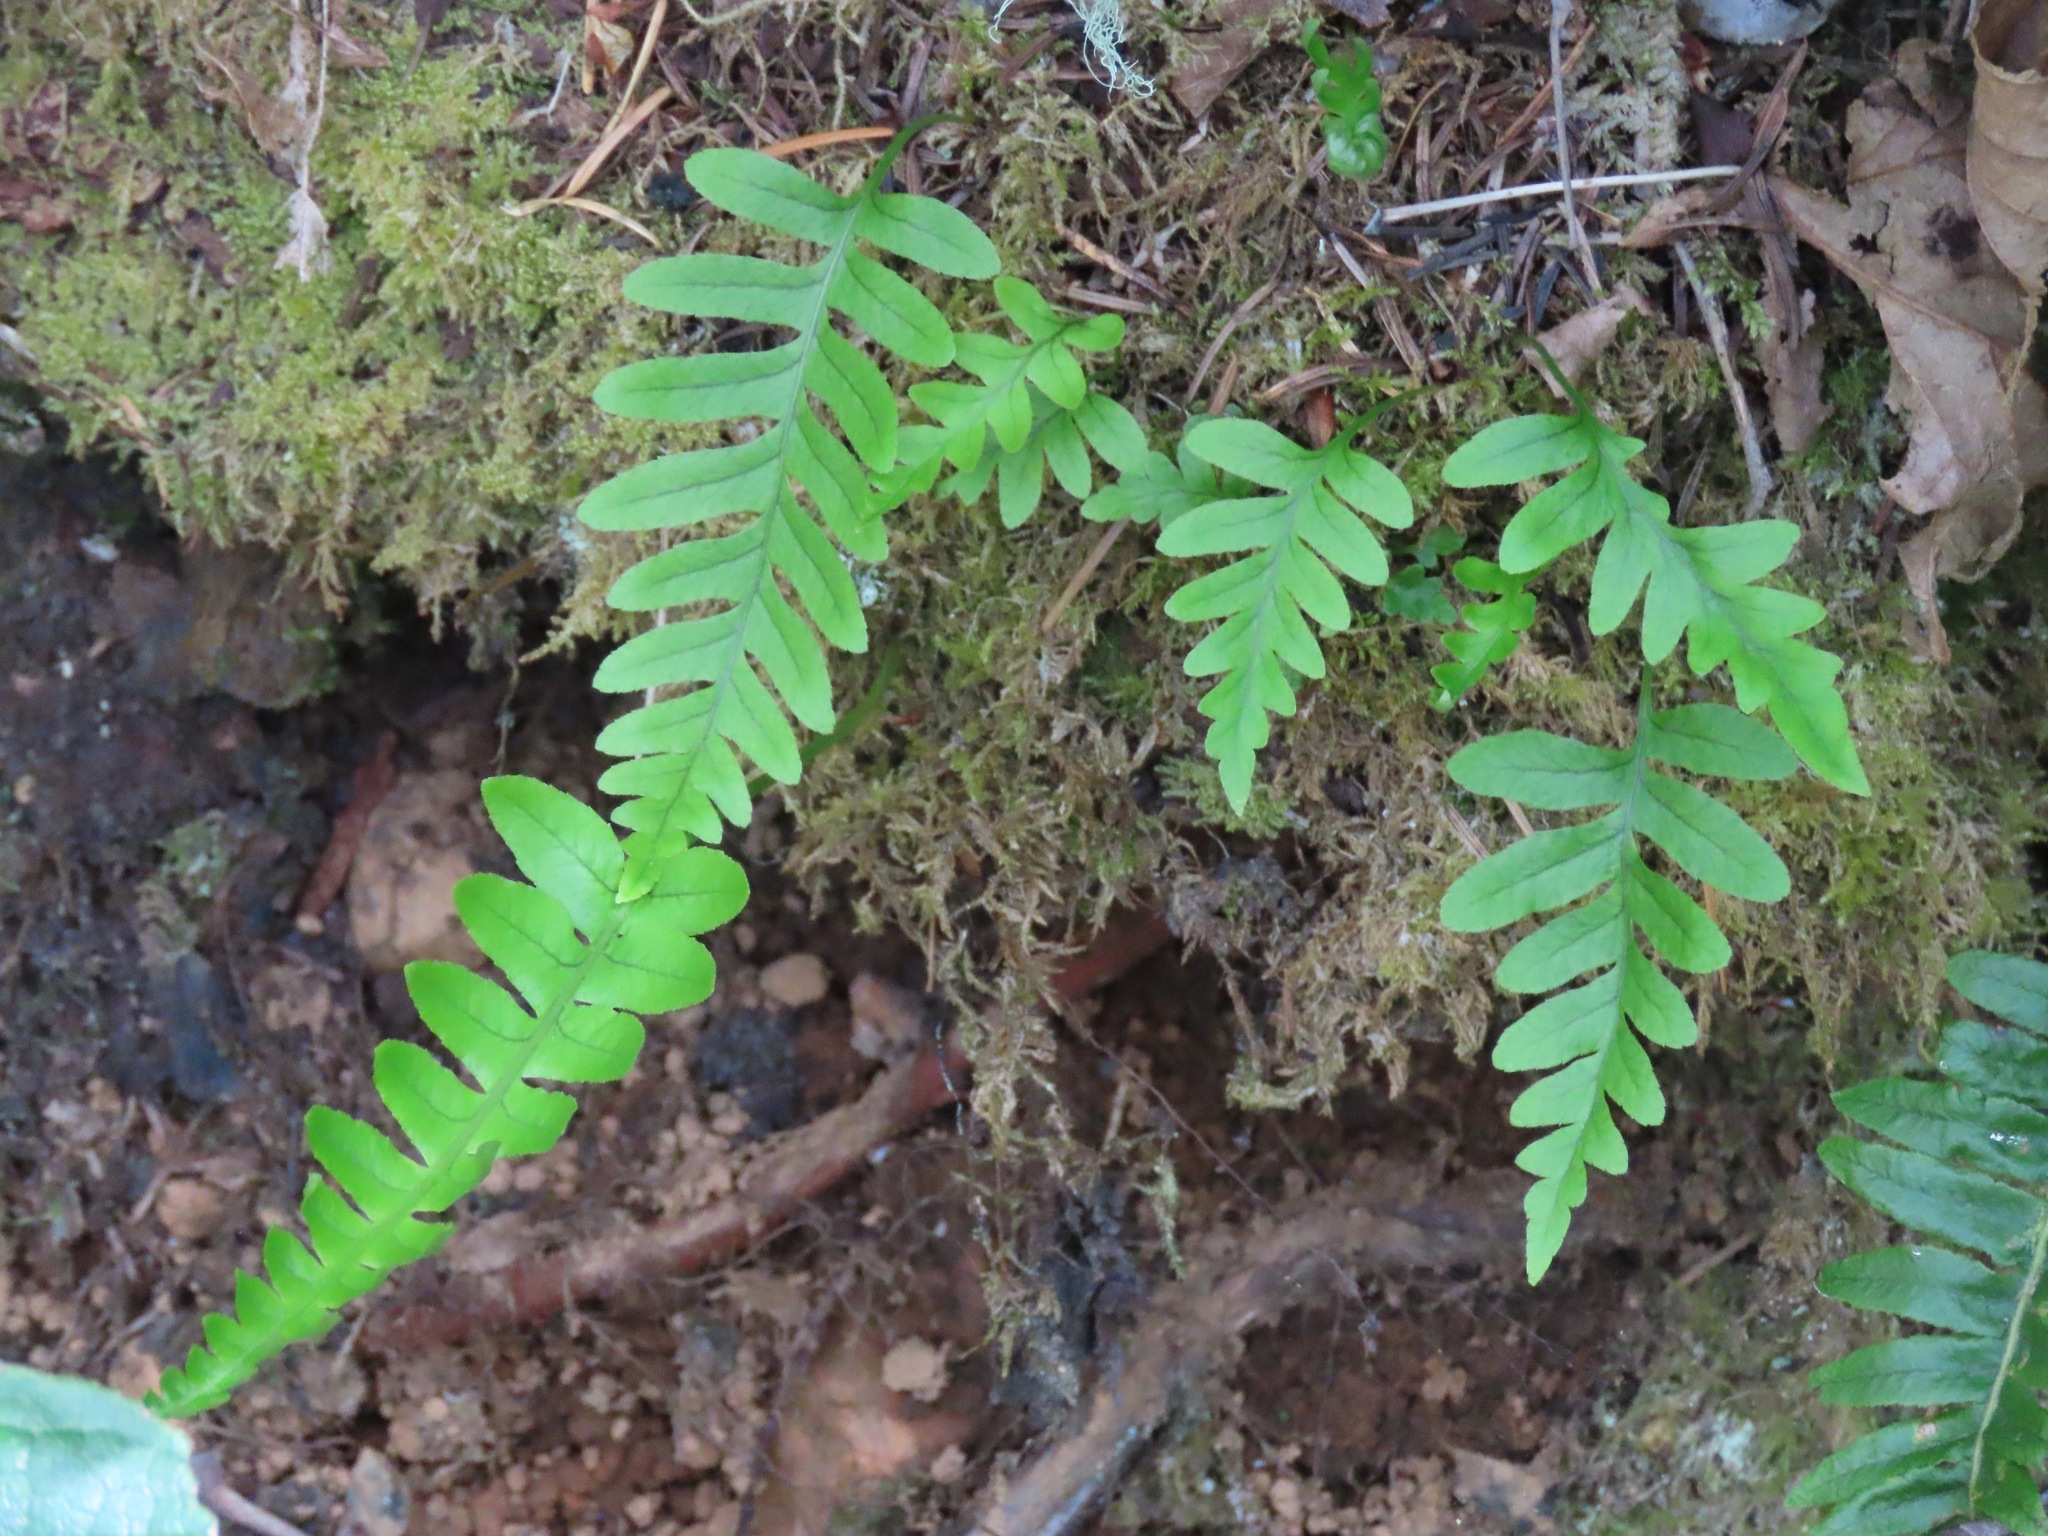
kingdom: Plantae
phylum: Tracheophyta
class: Polypodiopsida
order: Polypodiales
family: Polypodiaceae
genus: Polypodium
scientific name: Polypodium glycyrrhiza
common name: Licorice fern
